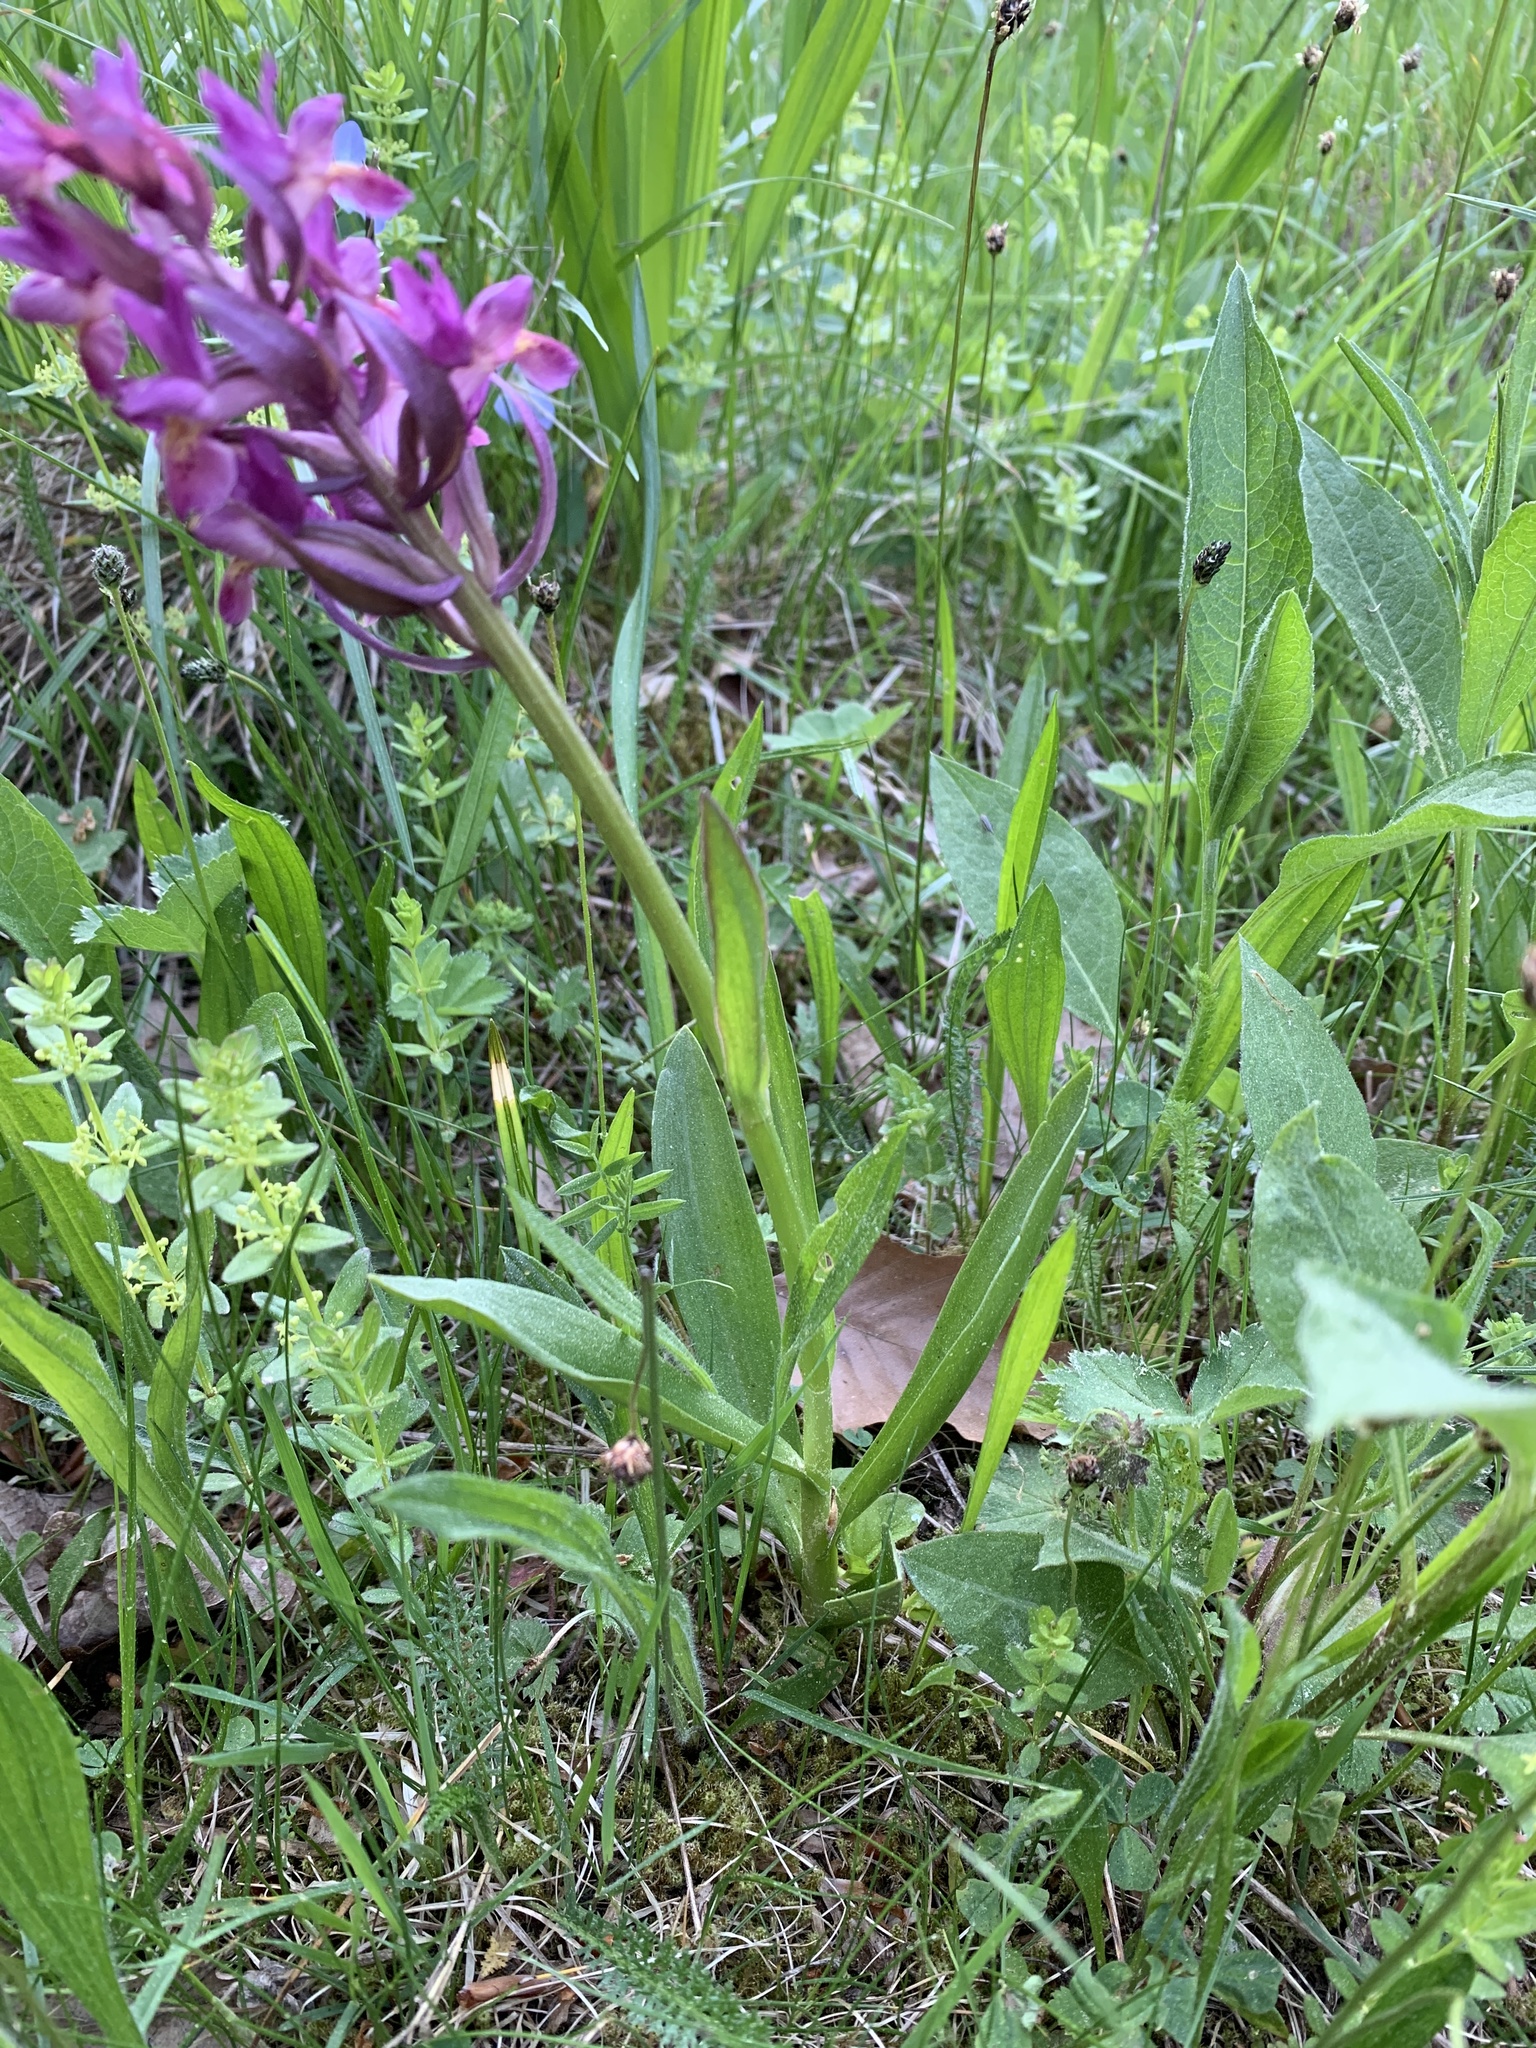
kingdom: Plantae
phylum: Tracheophyta
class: Liliopsida
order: Asparagales
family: Orchidaceae
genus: Dactylorhiza
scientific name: Dactylorhiza sambucina
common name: Elder-flowered orchid
